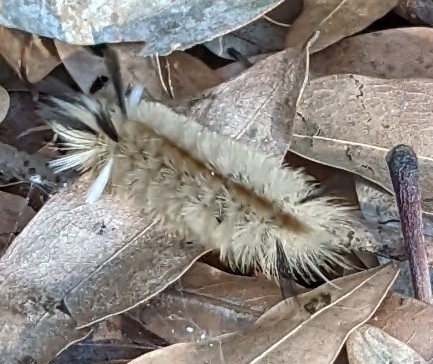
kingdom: Animalia
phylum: Arthropoda
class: Insecta
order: Lepidoptera
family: Erebidae
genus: Halysidota
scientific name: Halysidota tessellaris
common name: Banded tussock moth
